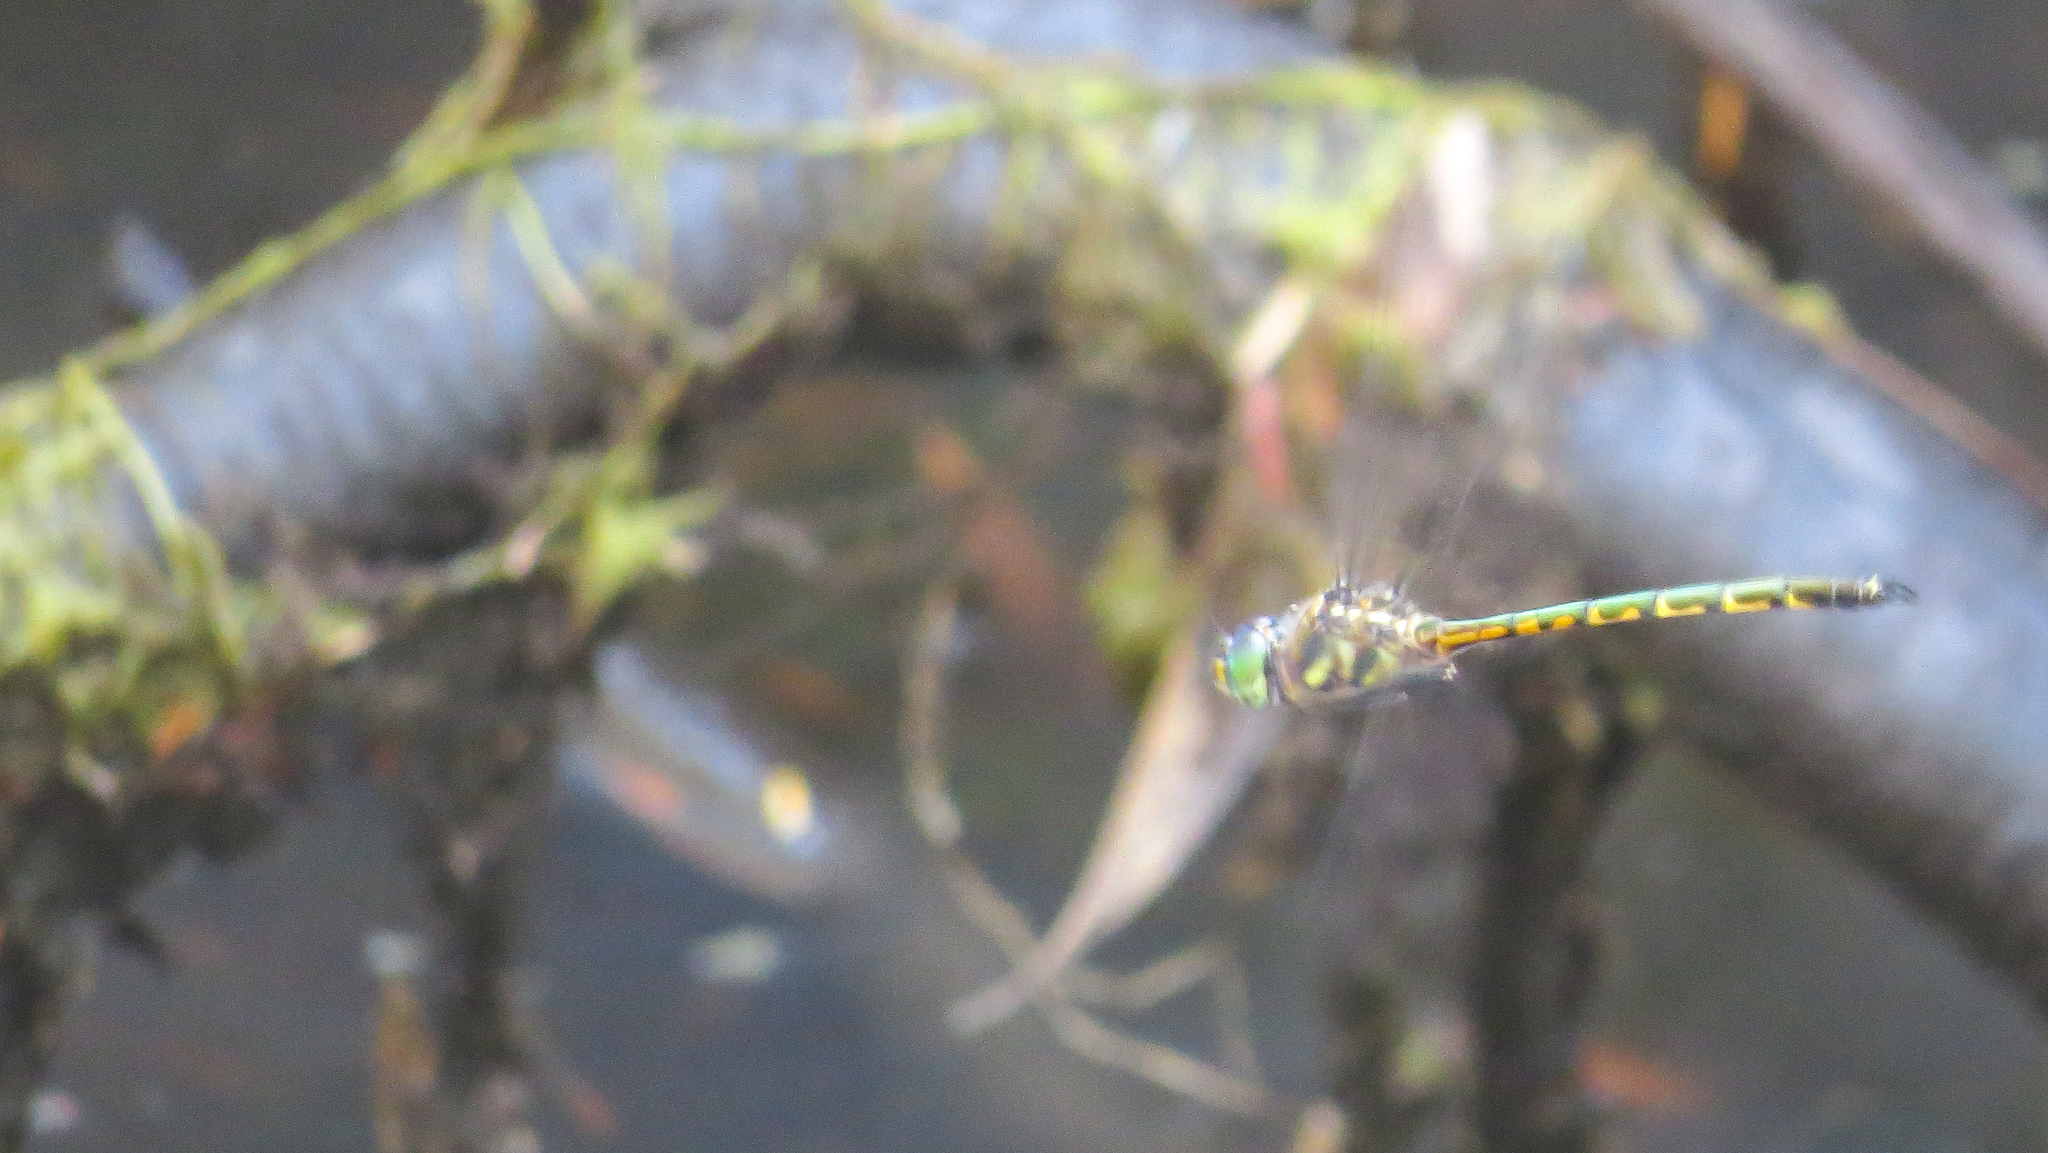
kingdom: Animalia
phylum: Arthropoda
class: Insecta
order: Odonata
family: Corduliidae
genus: Hemicordulia
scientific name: Hemicordulia australiae
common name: Sentry dragonfly
